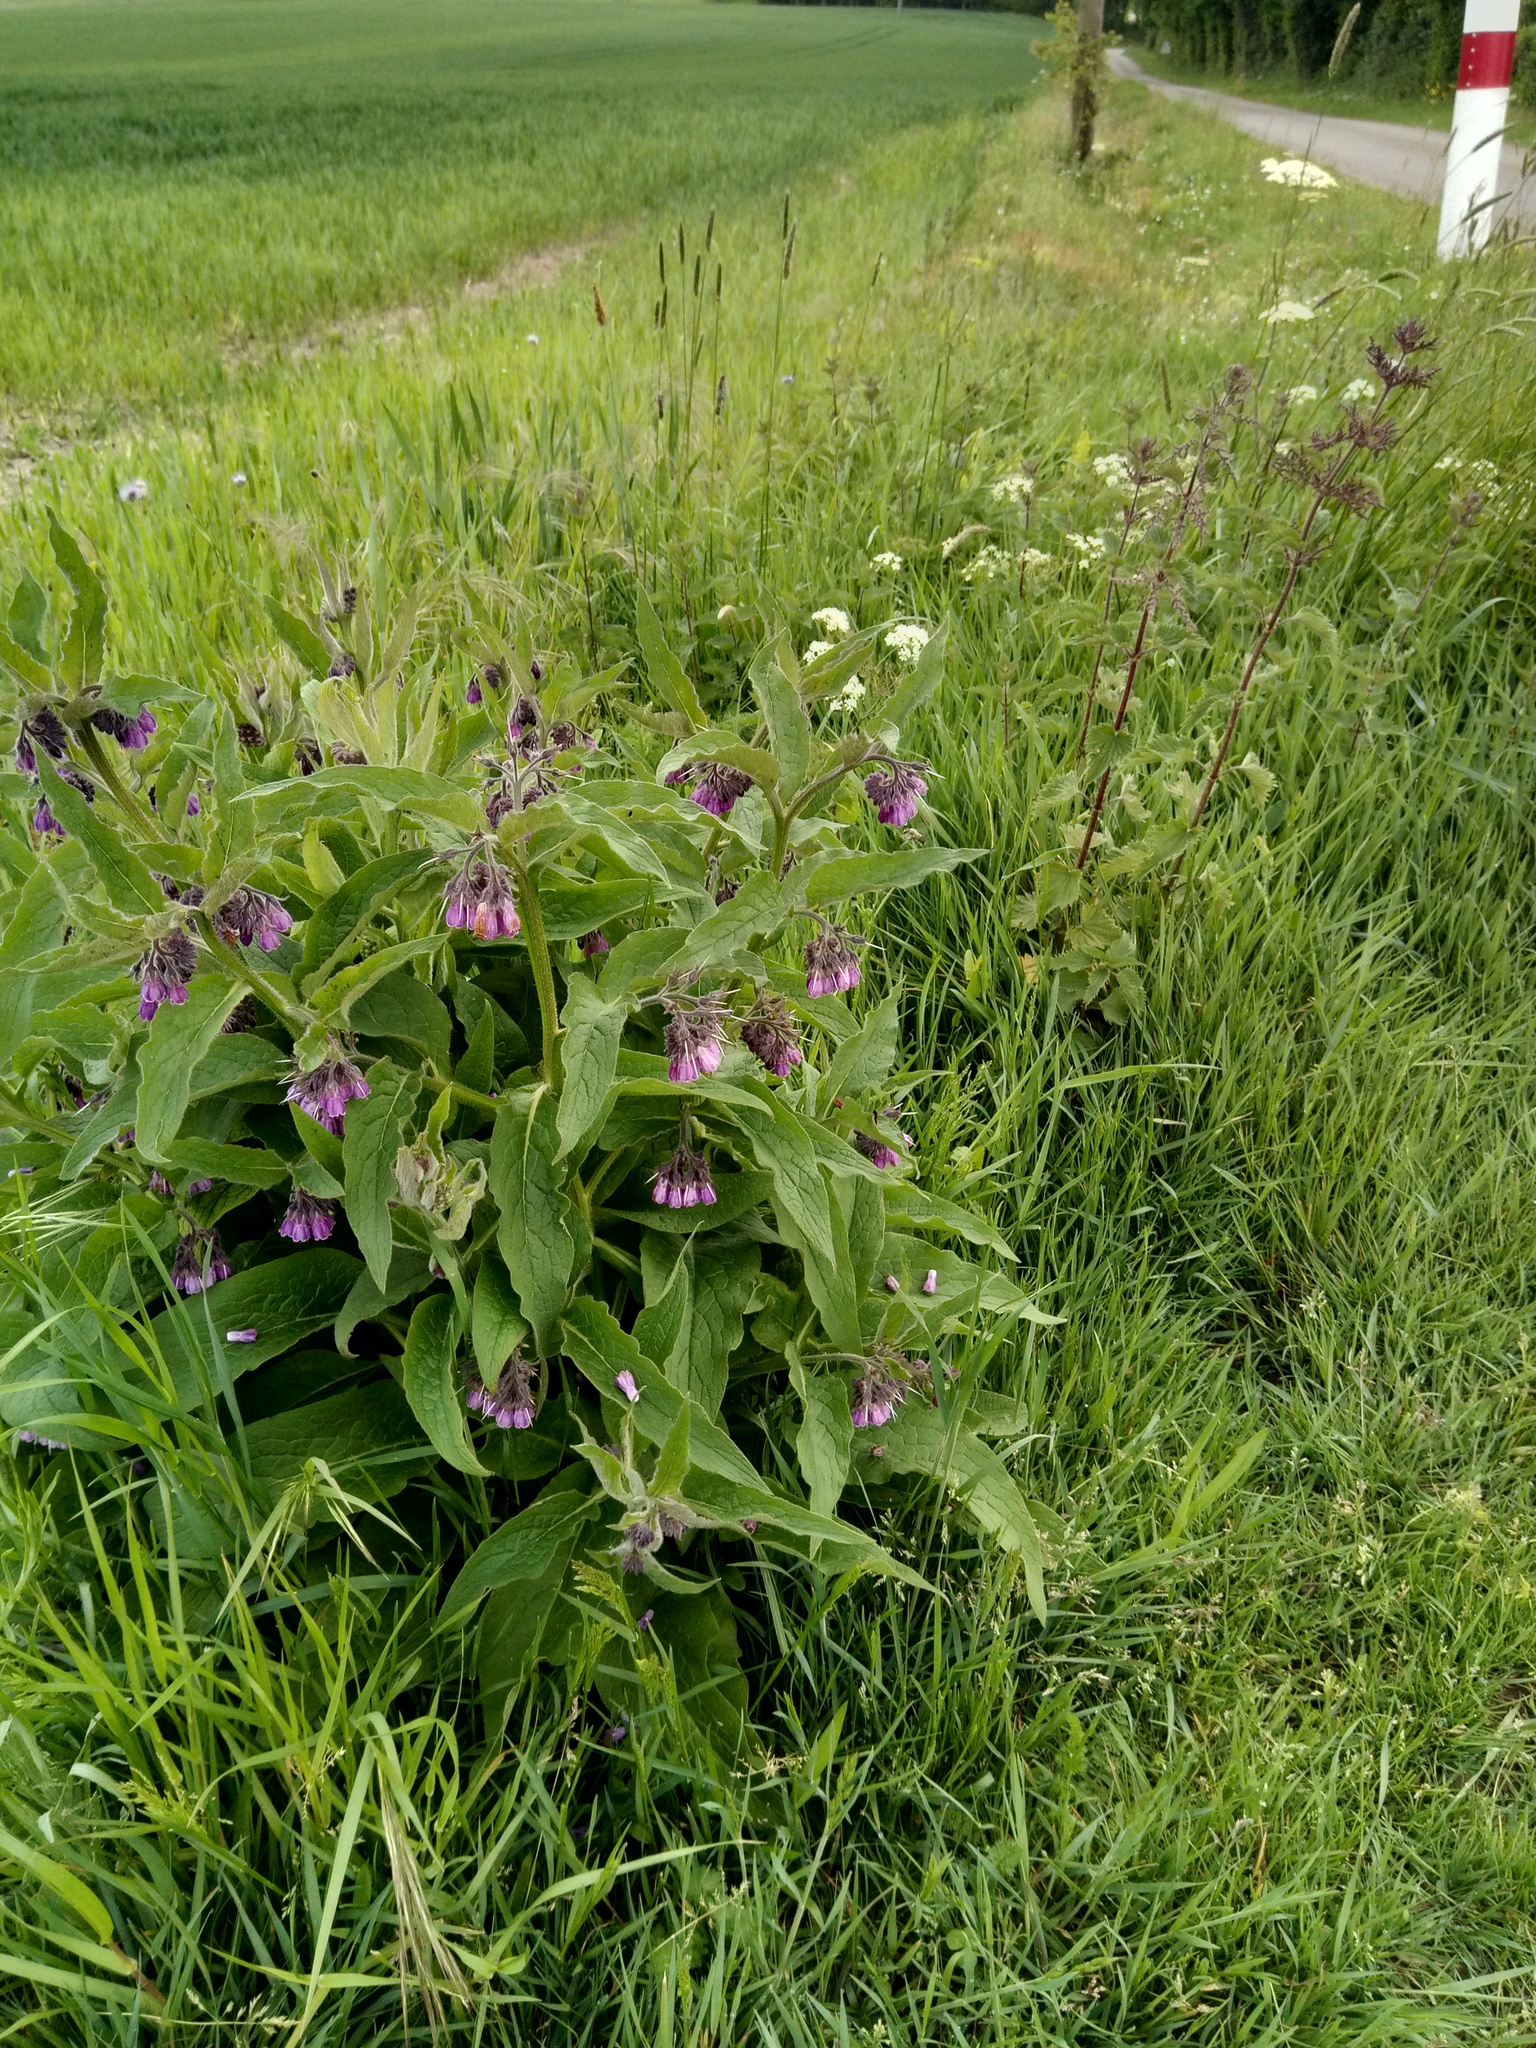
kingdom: Plantae
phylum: Tracheophyta
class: Magnoliopsida
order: Boraginales
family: Boraginaceae
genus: Symphytum
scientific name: Symphytum officinale
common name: Common comfrey
